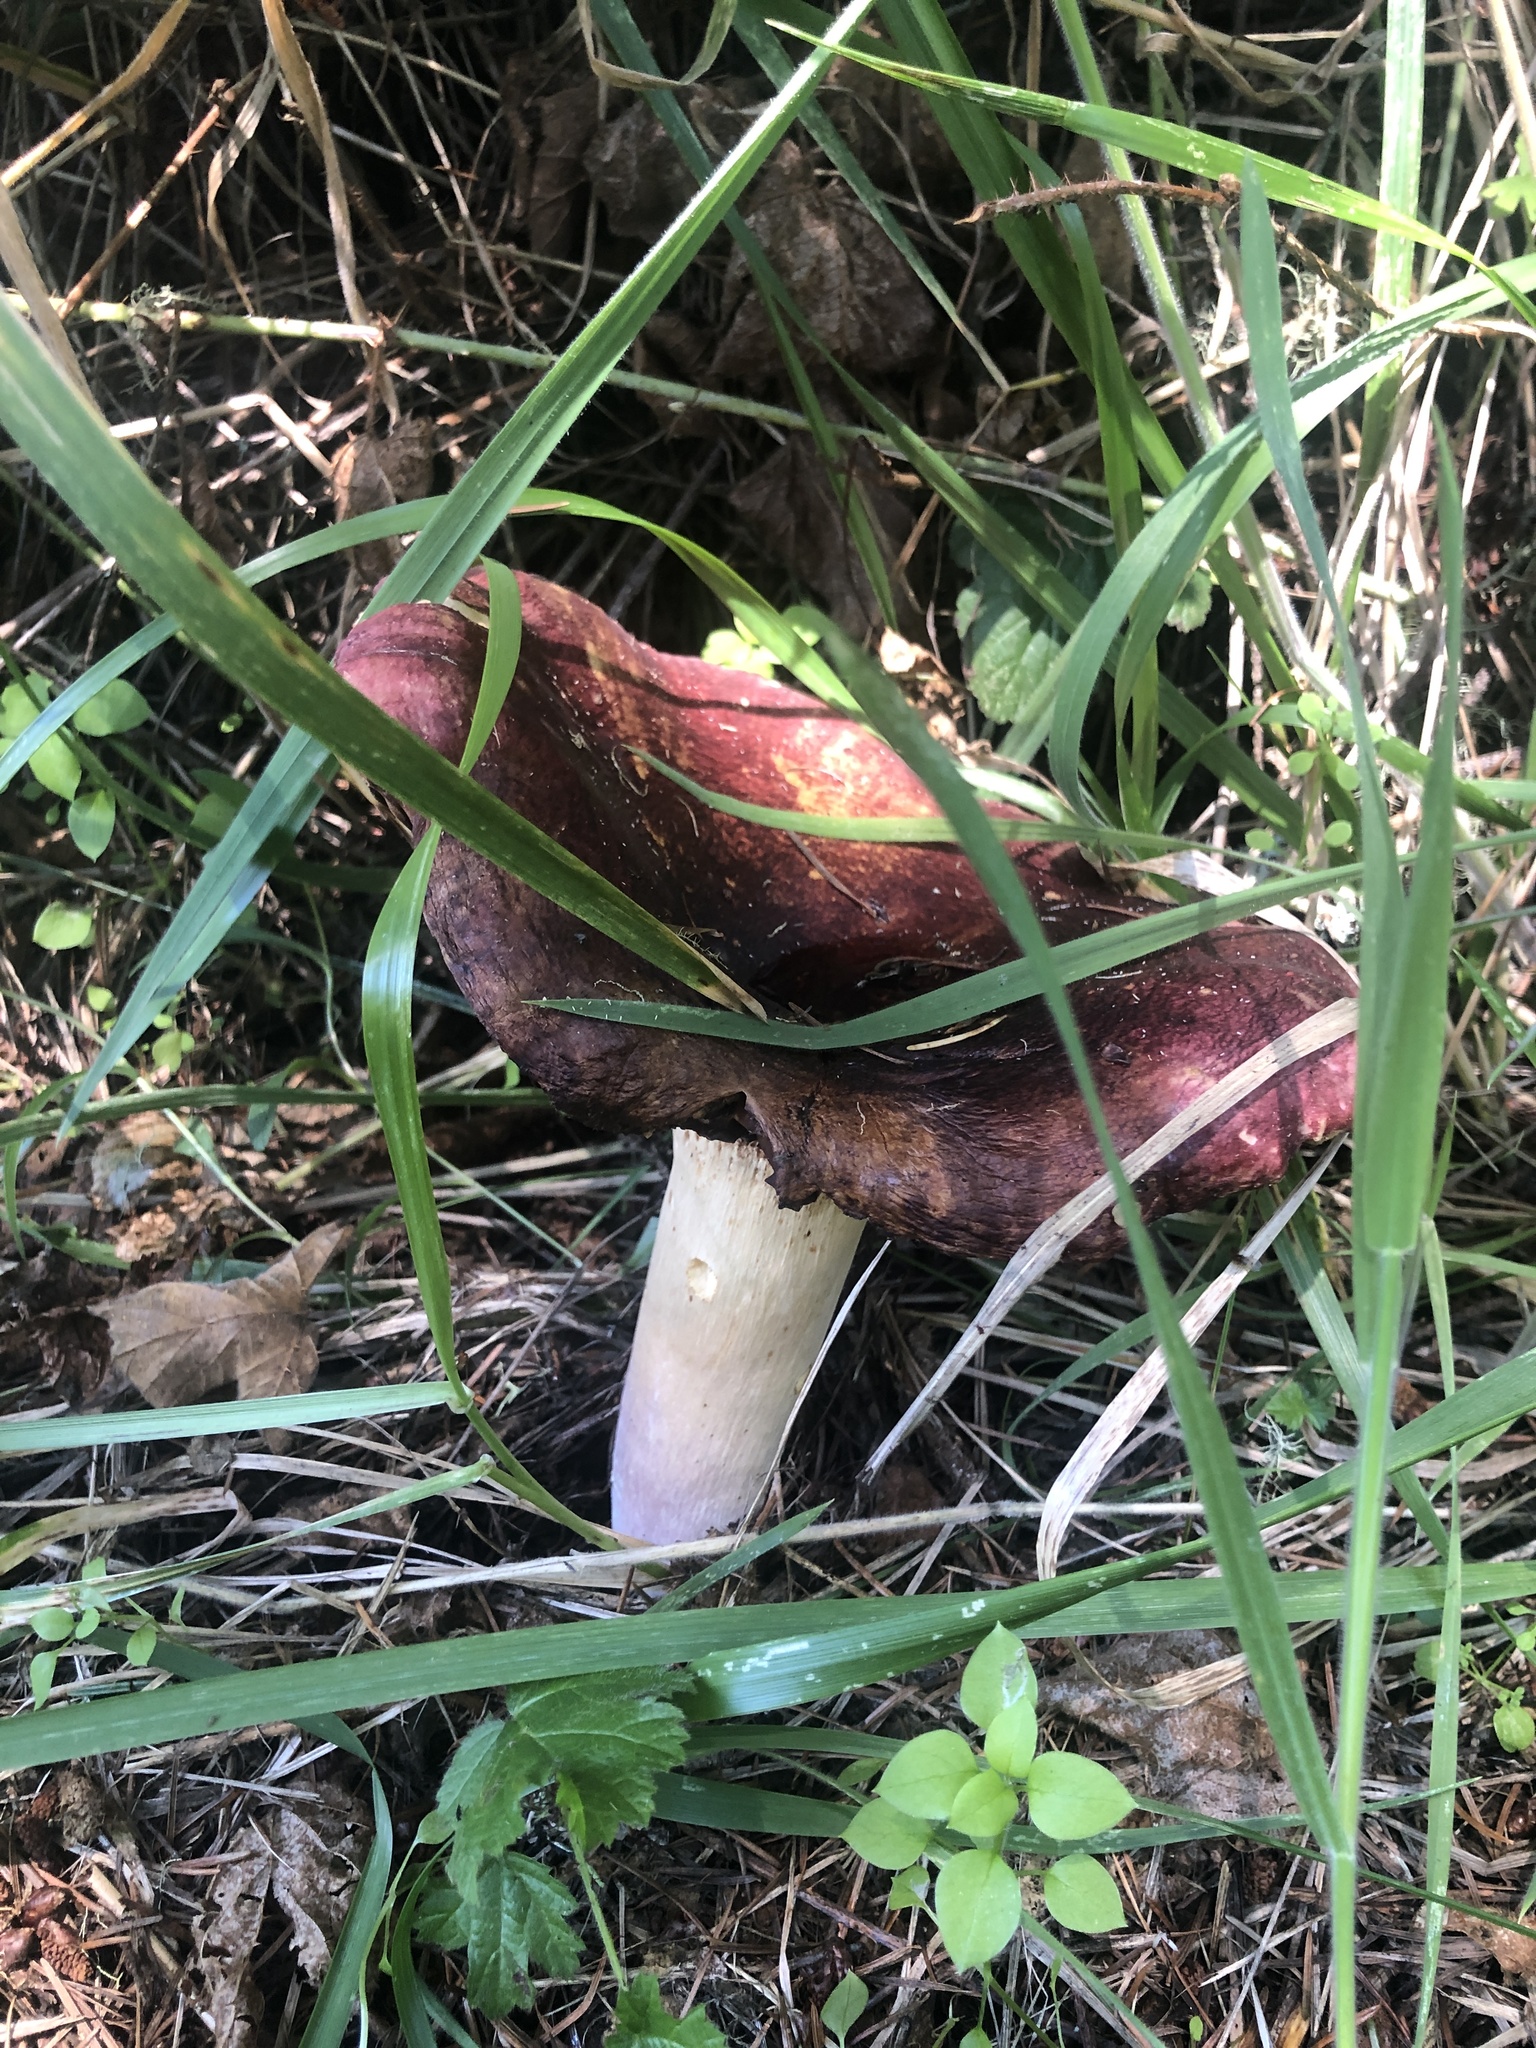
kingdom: Fungi
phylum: Basidiomycota
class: Agaricomycetes
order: Russulales
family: Russulaceae
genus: Russula
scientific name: Russula xerampelina
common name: Crab brittlegill
